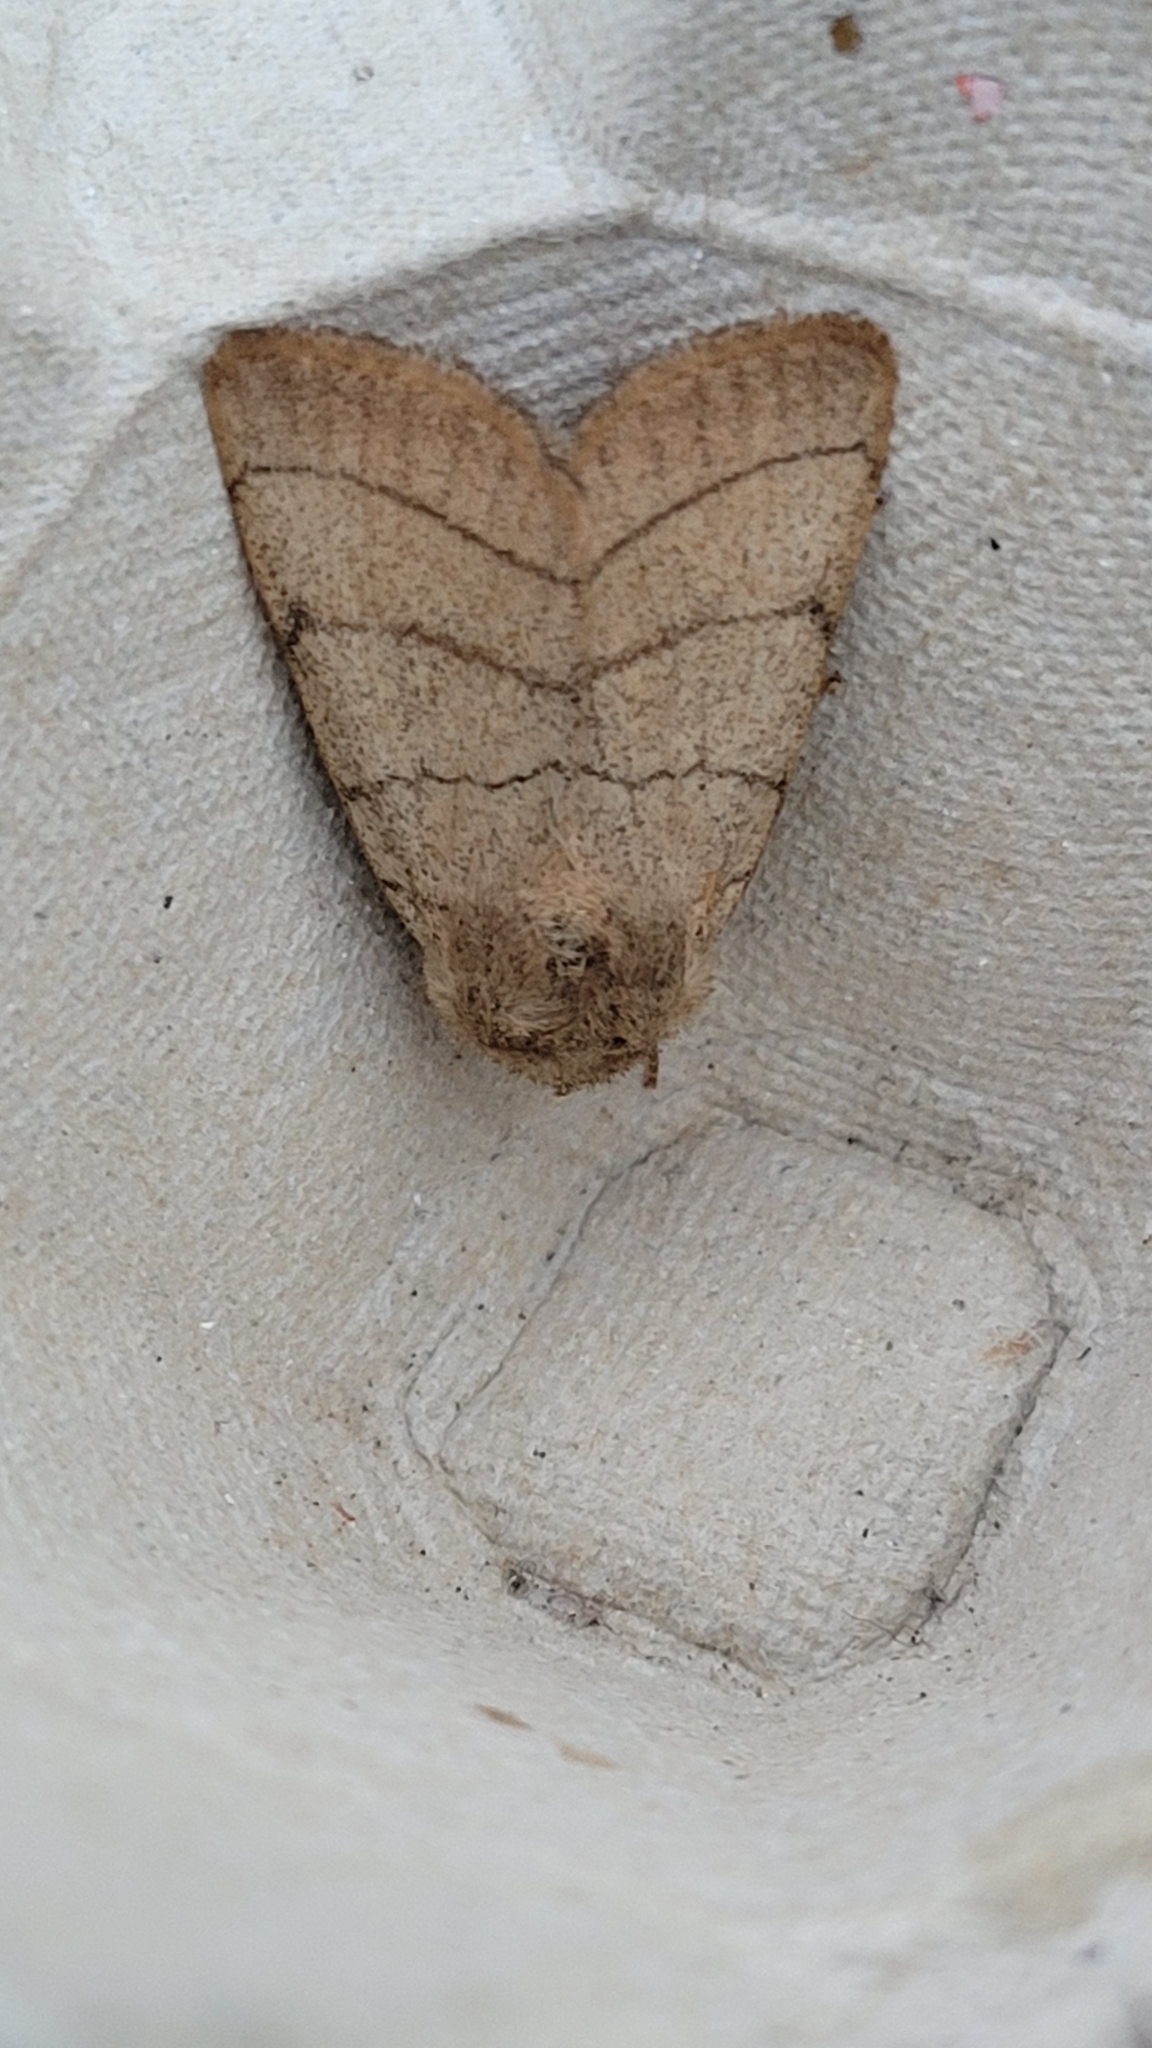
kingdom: Animalia
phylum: Arthropoda
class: Insecta
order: Lepidoptera
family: Noctuidae
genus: Charanyca
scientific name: Charanyca trigrammica
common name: Treble lines
